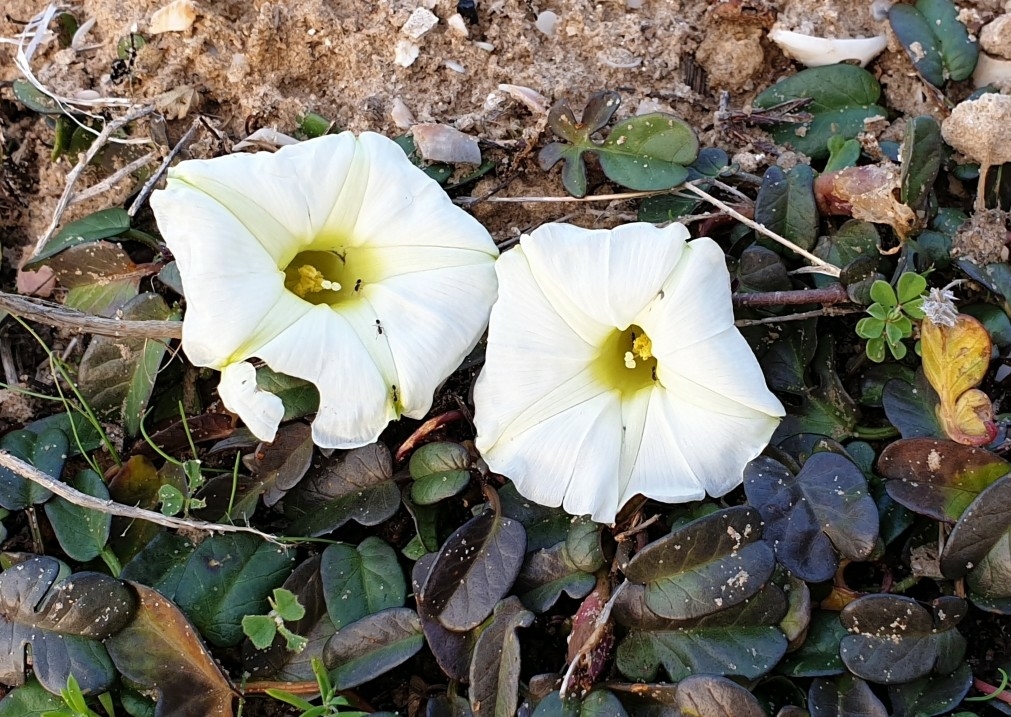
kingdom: Plantae
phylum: Tracheophyta
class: Magnoliopsida
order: Solanales
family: Convolvulaceae
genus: Ipomoea
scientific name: Ipomoea imperati
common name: Fiddle-leaf morning-glory
